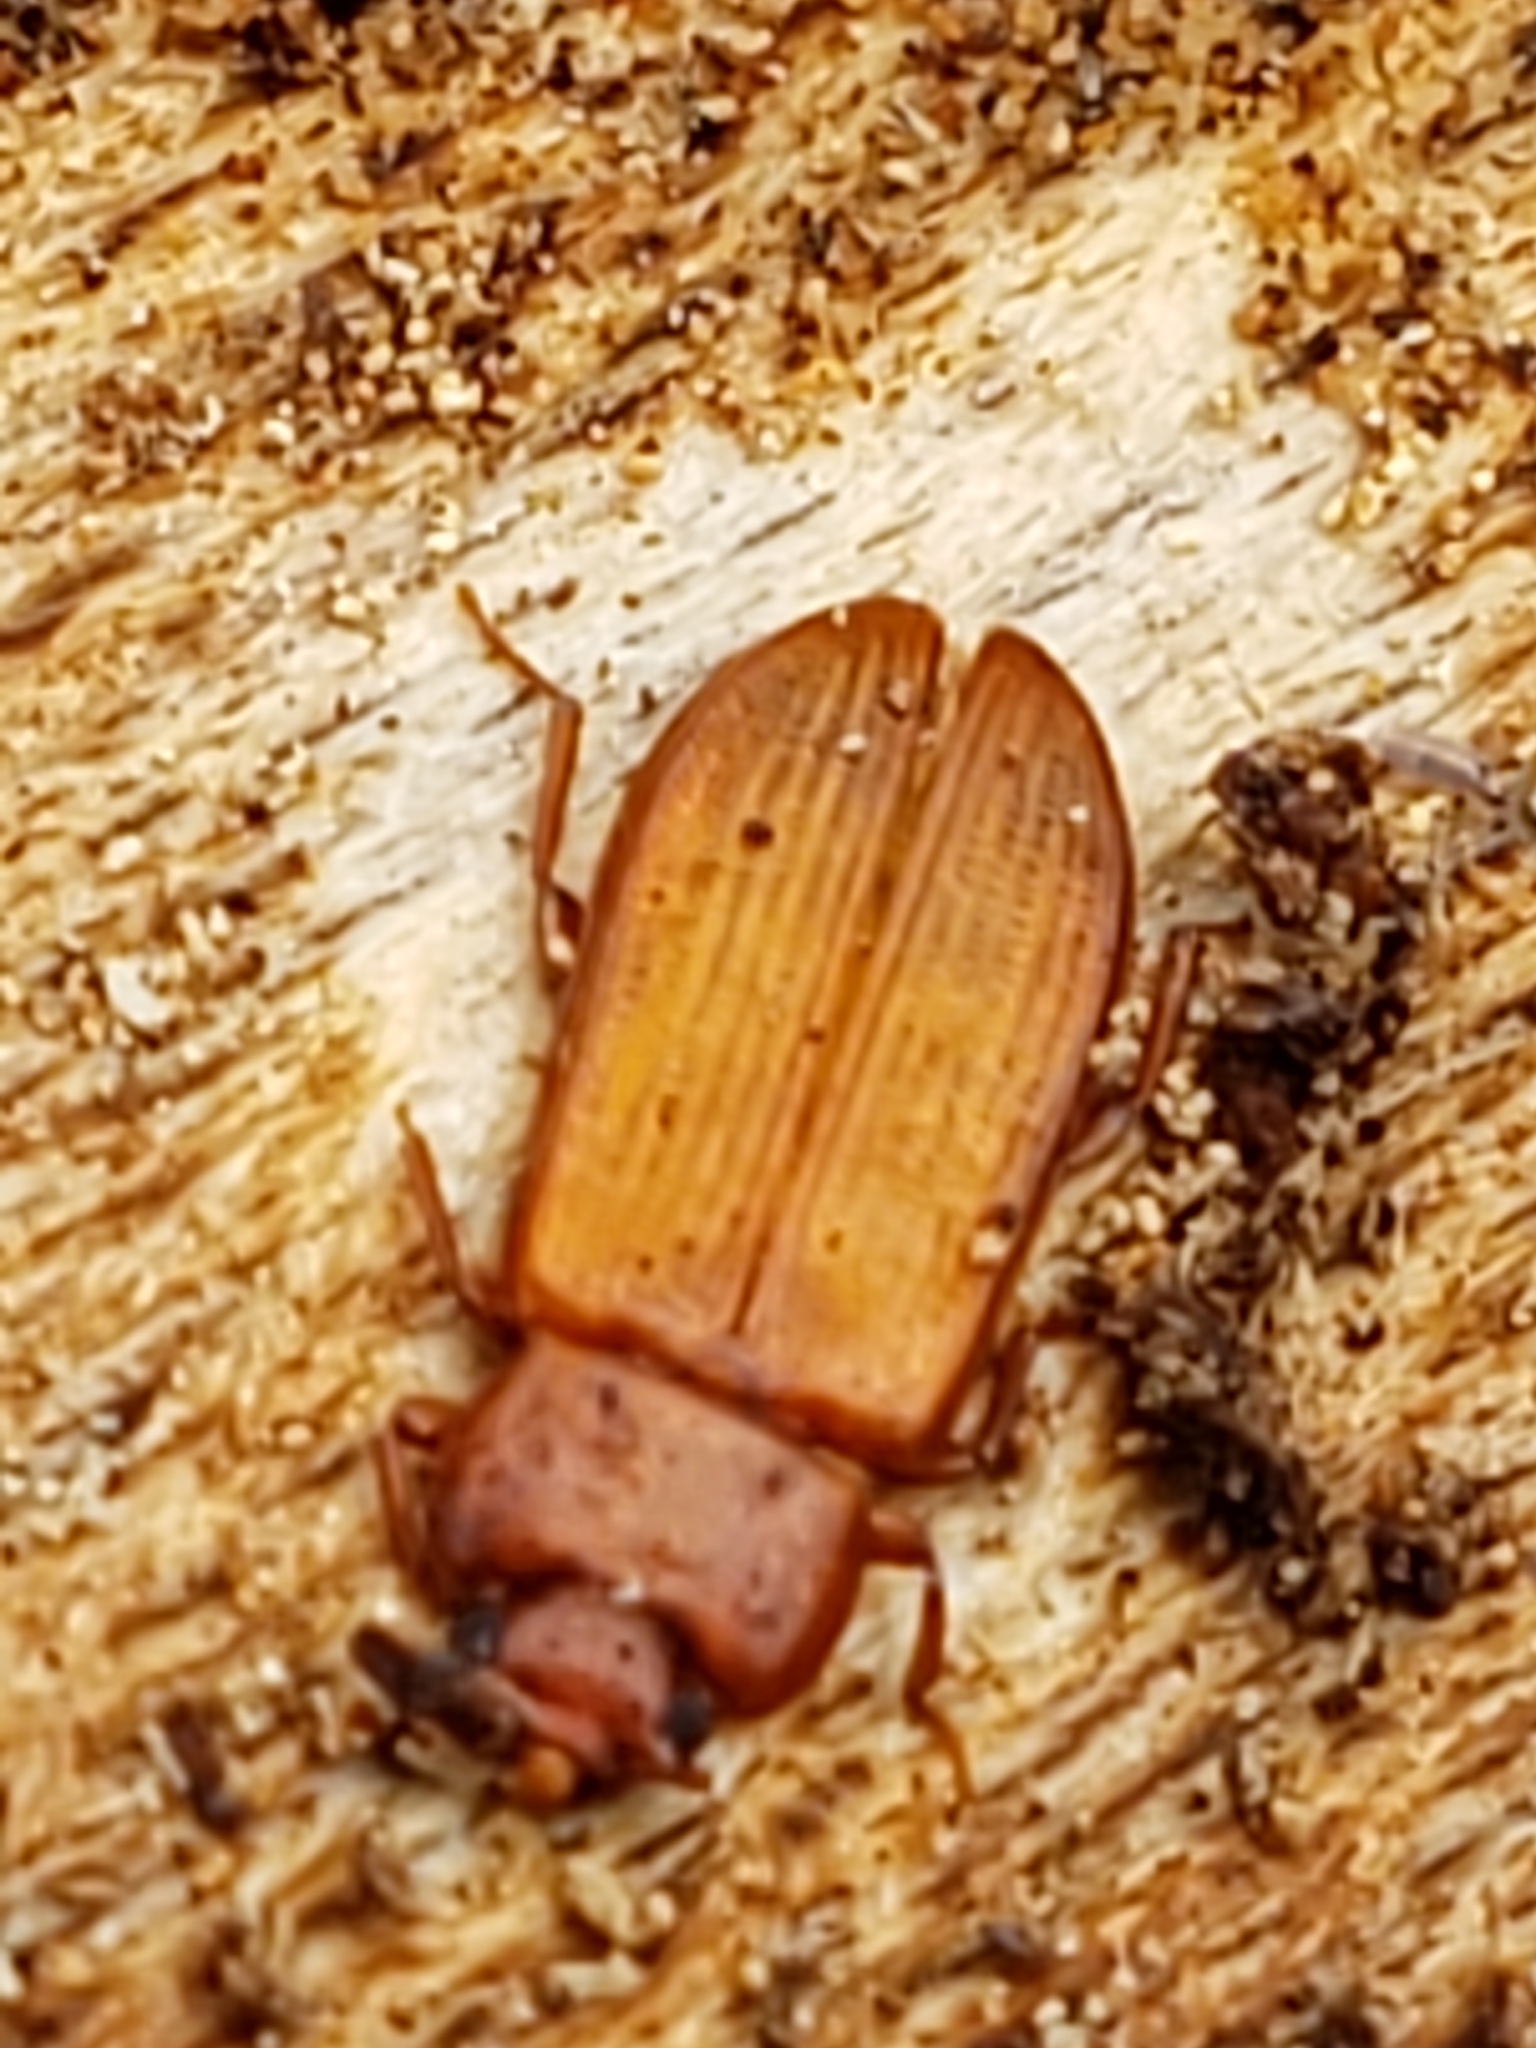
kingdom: Animalia
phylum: Arthropoda
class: Insecta
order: Coleoptera
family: Tenebrionidae
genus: Adelina
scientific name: Adelina pallida
